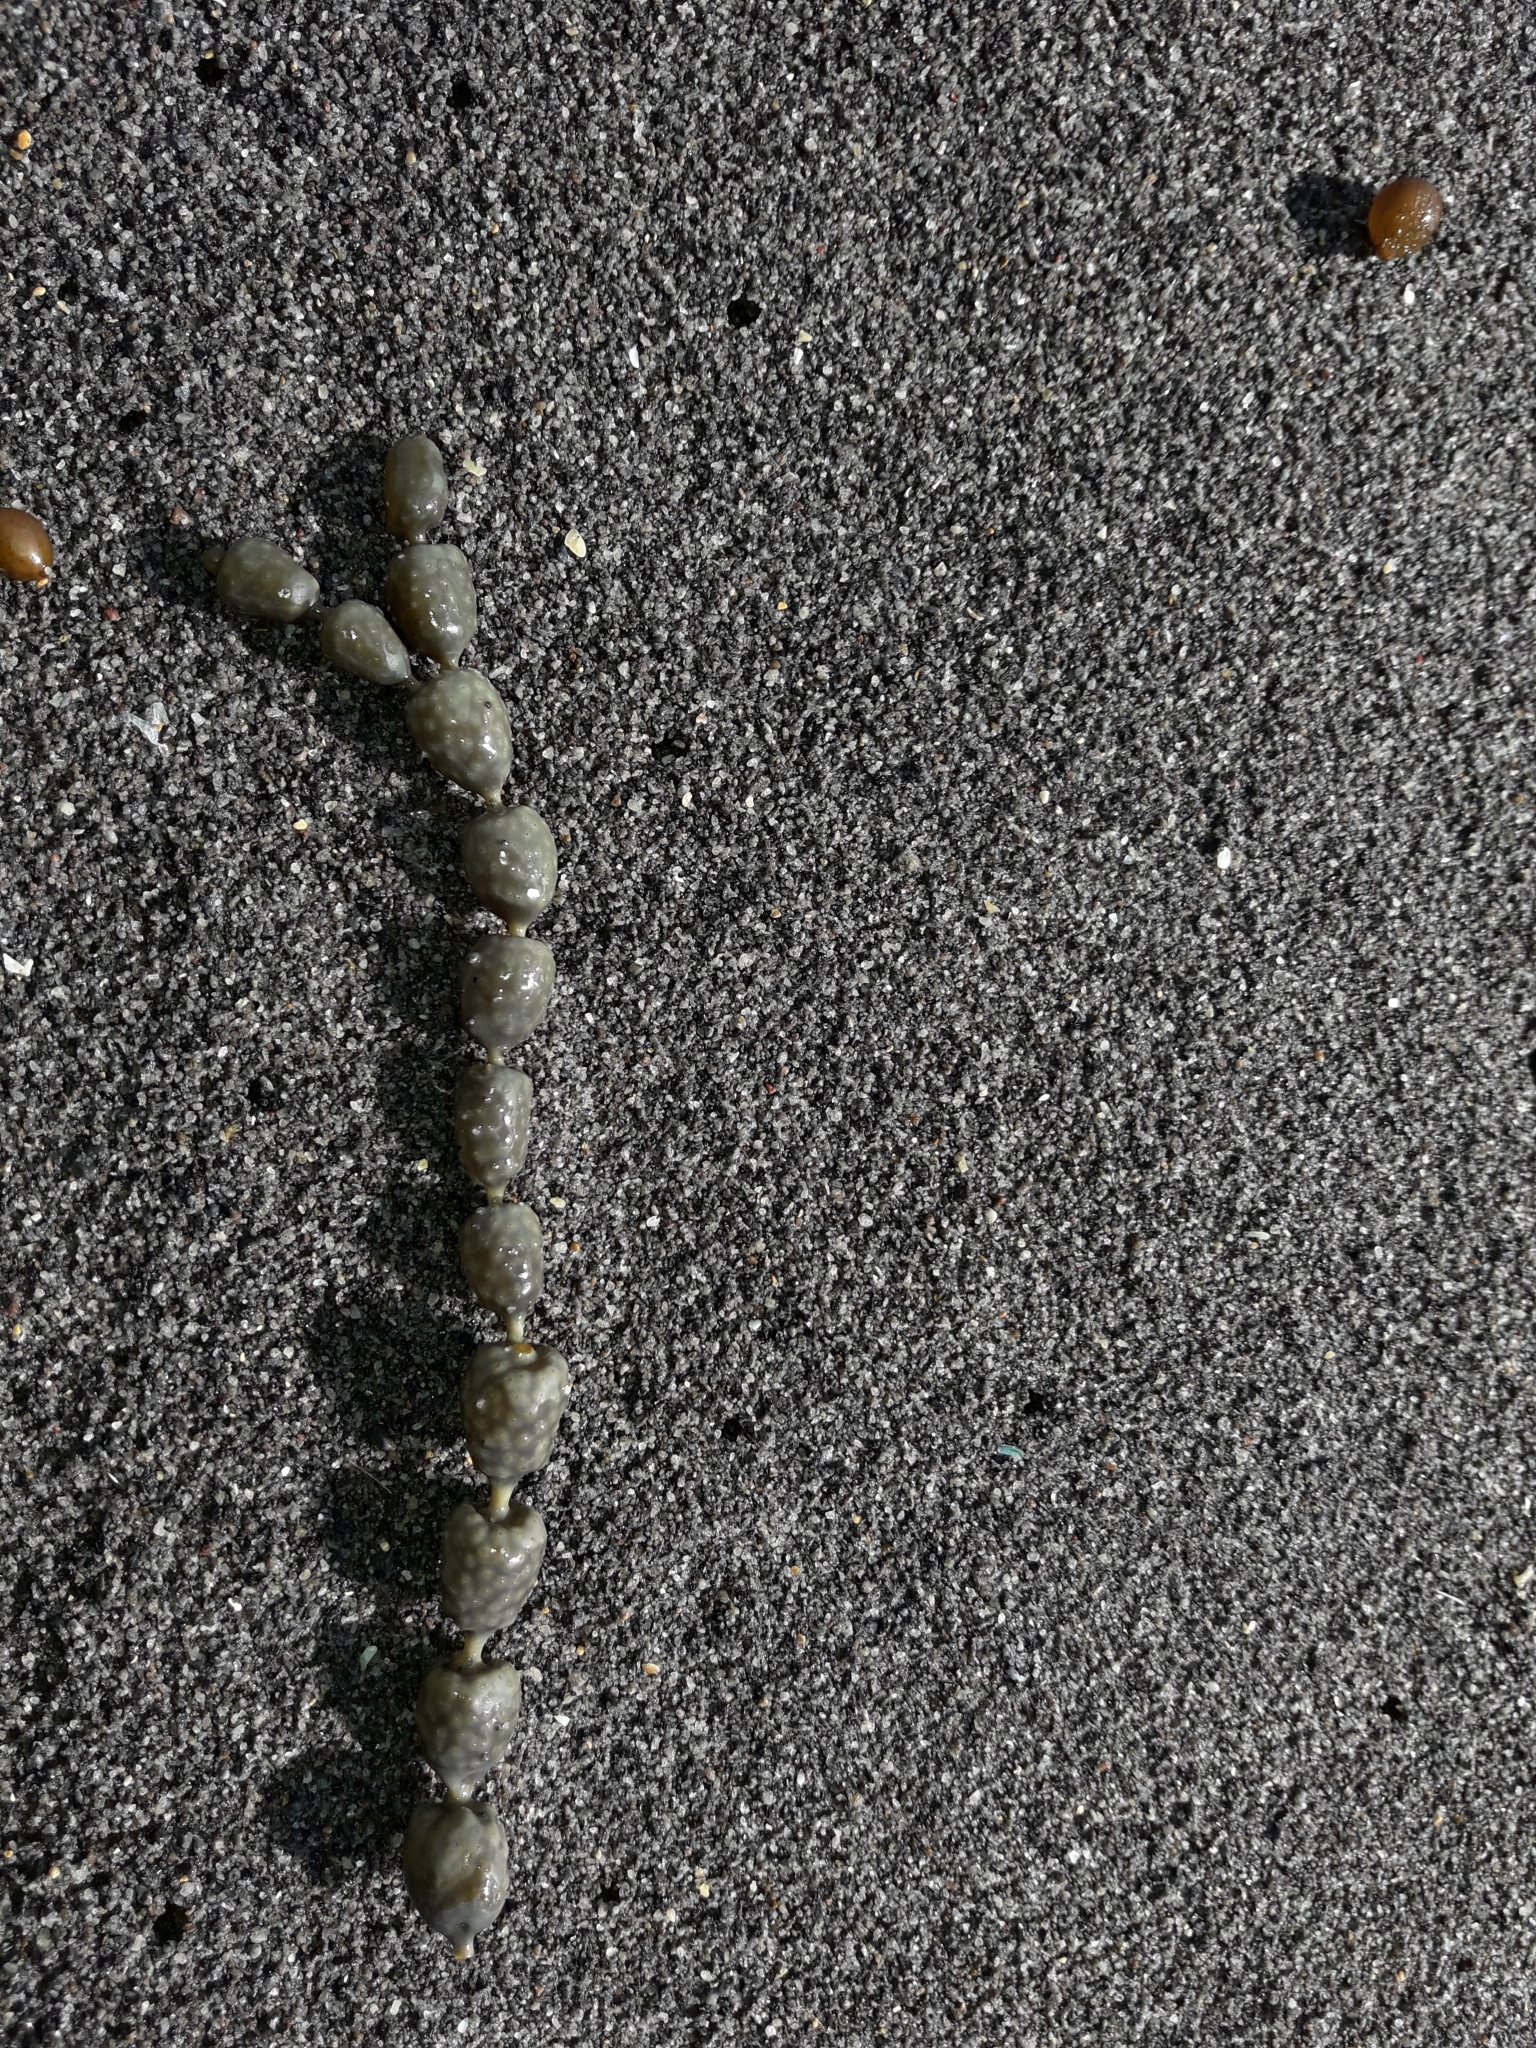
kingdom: Chromista
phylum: Ochrophyta
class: Phaeophyceae
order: Fucales
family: Hormosiraceae
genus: Hormosira
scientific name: Hormosira banksii
